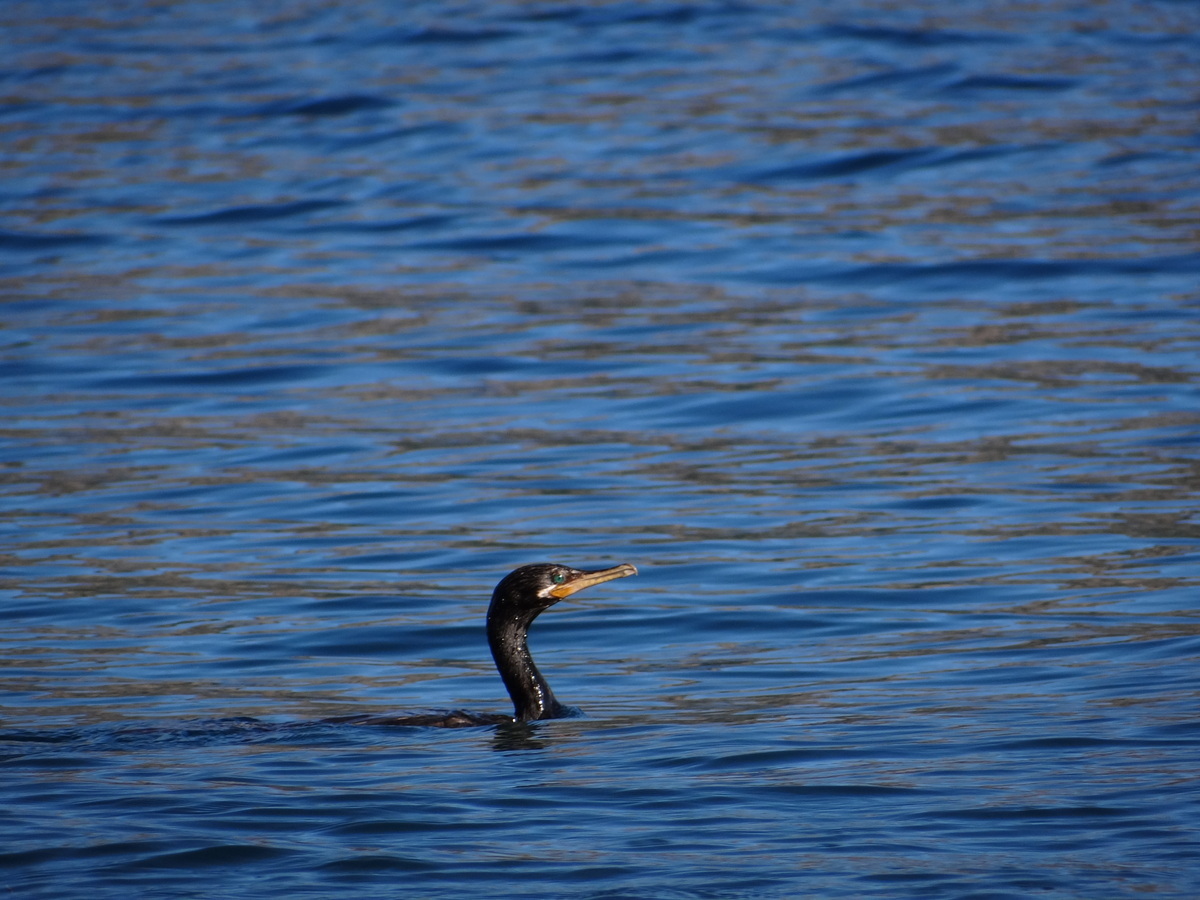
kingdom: Animalia
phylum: Chordata
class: Aves
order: Suliformes
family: Phalacrocoracidae
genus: Phalacrocorax
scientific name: Phalacrocorax brasilianus
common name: Neotropic cormorant
